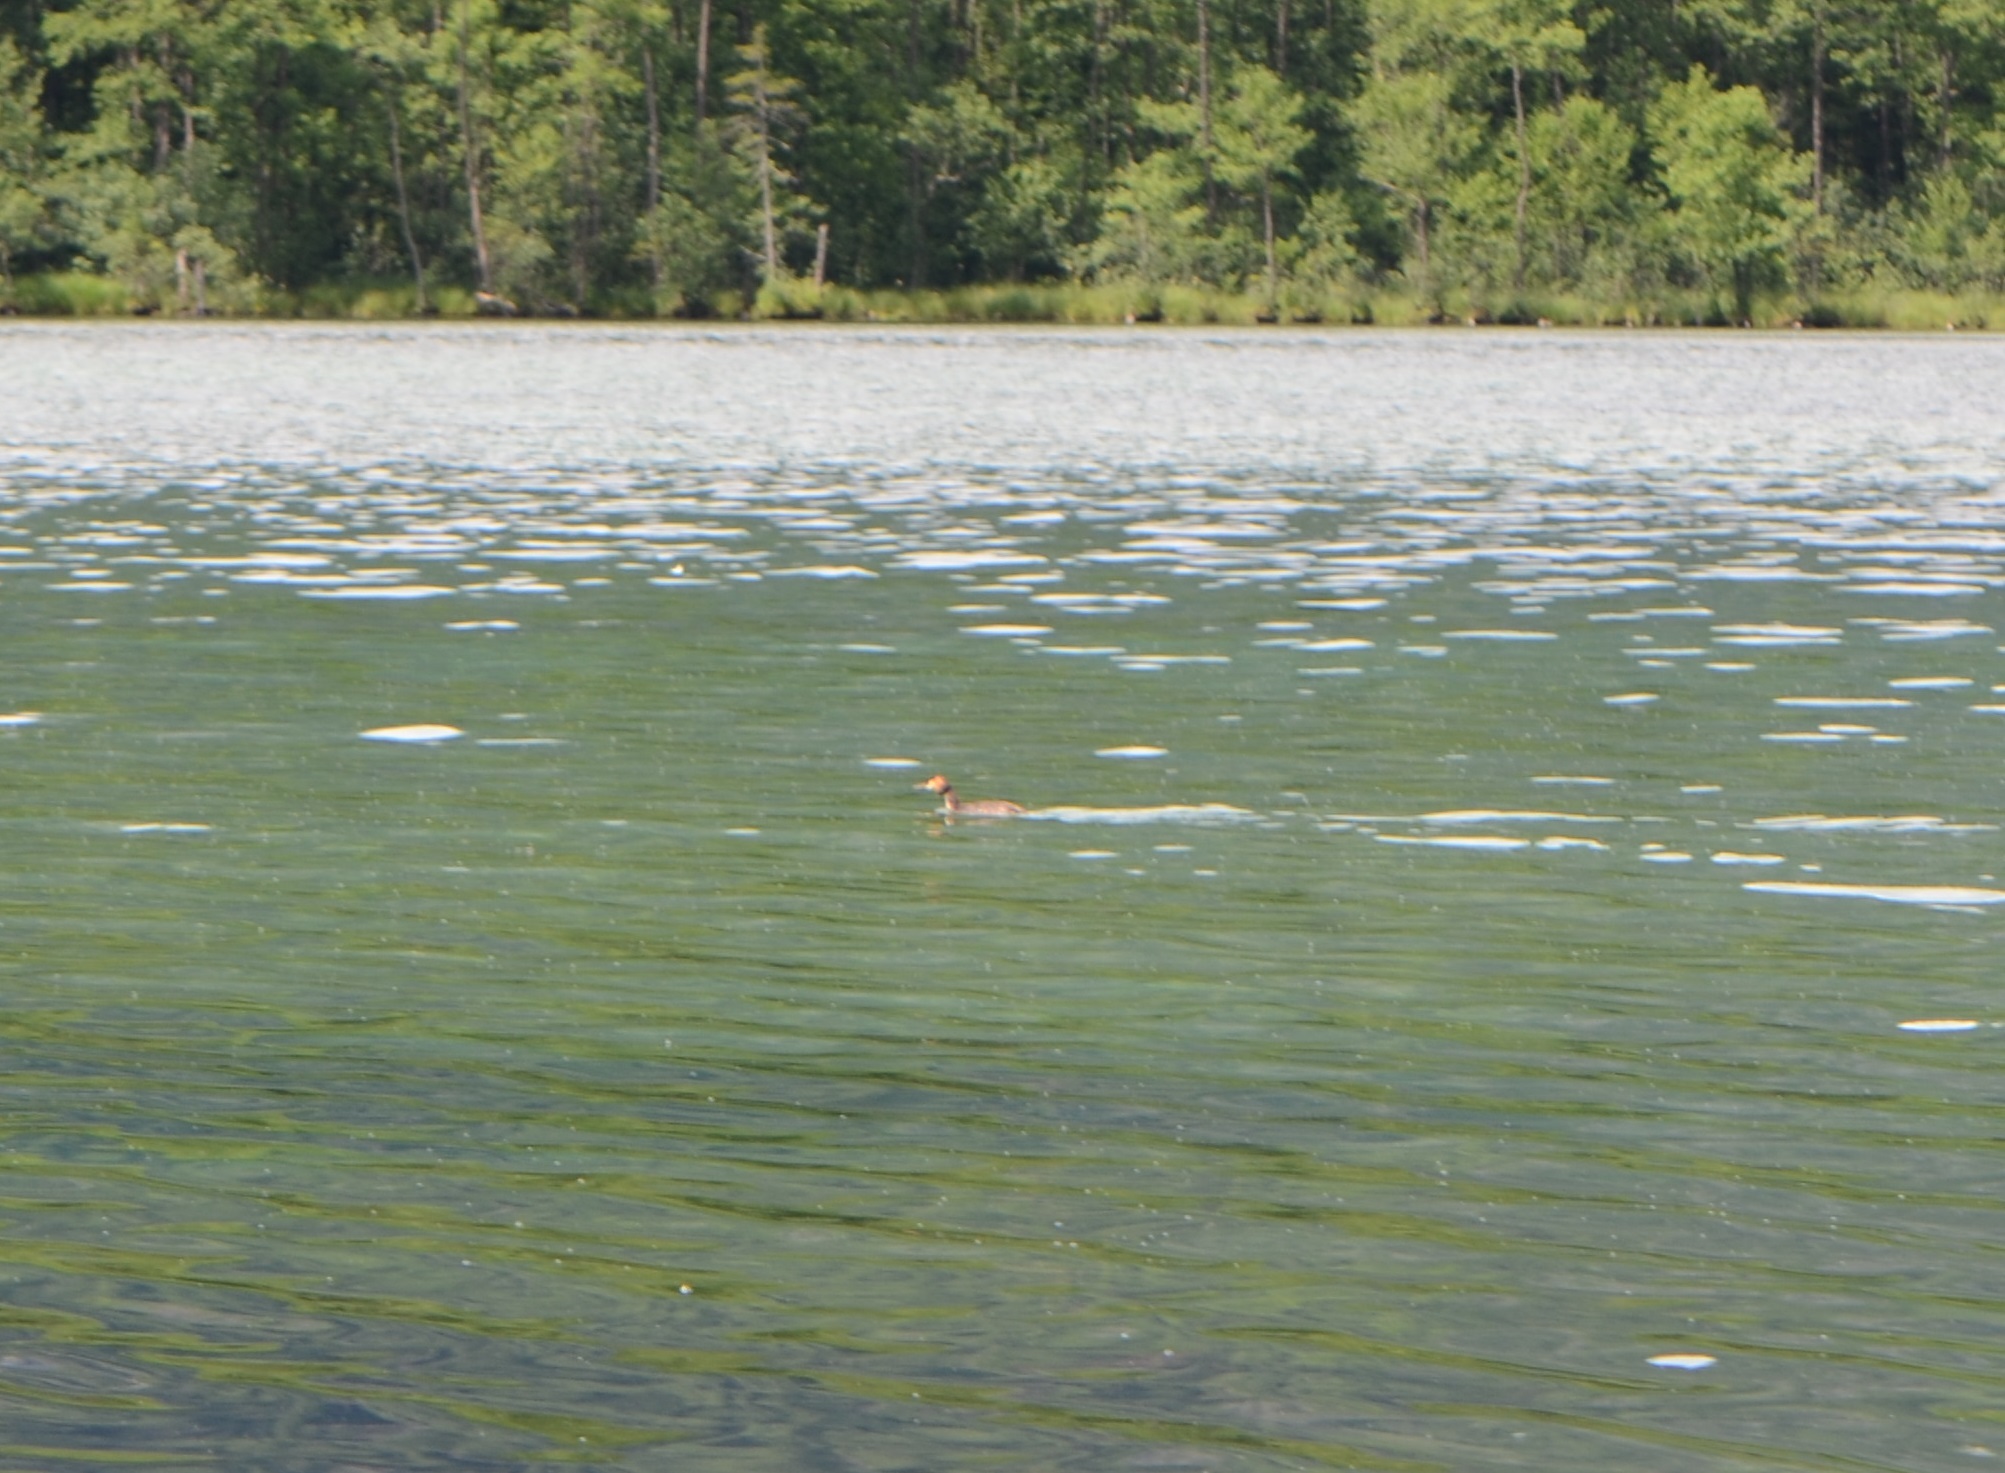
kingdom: Animalia
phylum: Chordata
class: Aves
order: Podicipediformes
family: Podicipedidae
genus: Podiceps
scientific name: Podiceps cristatus
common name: Great crested grebe
